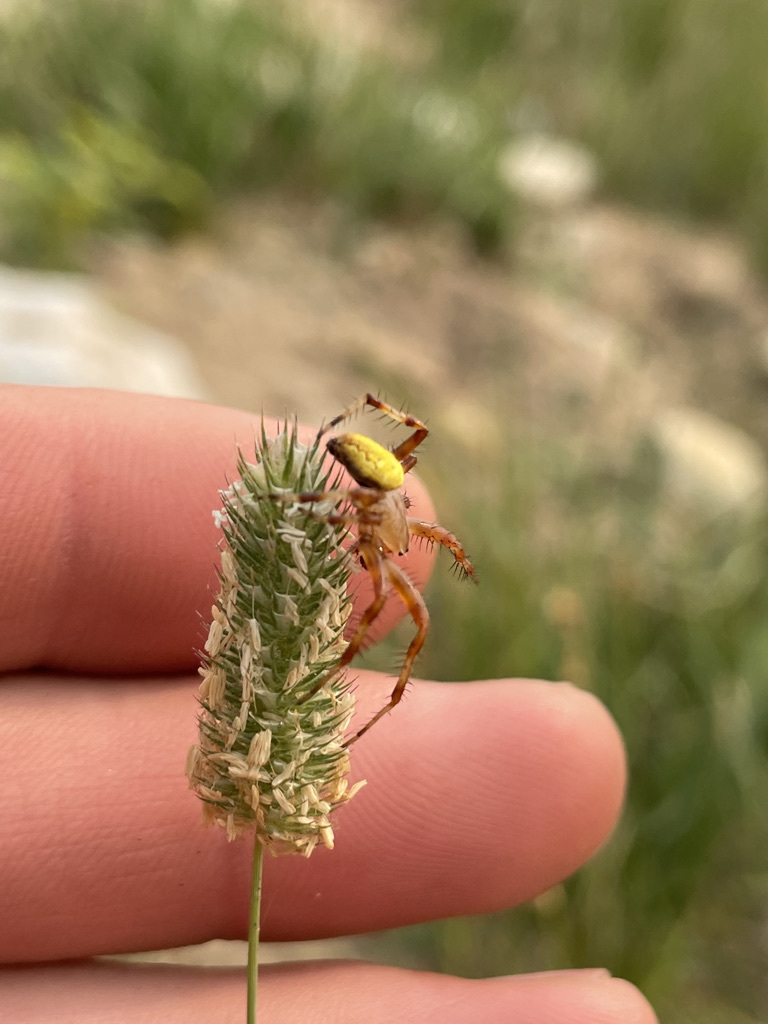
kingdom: Animalia
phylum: Arthropoda
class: Arachnida
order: Araneae
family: Araneidae
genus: Araneus
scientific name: Araneus trifolium
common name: Shamrock orbweaver
